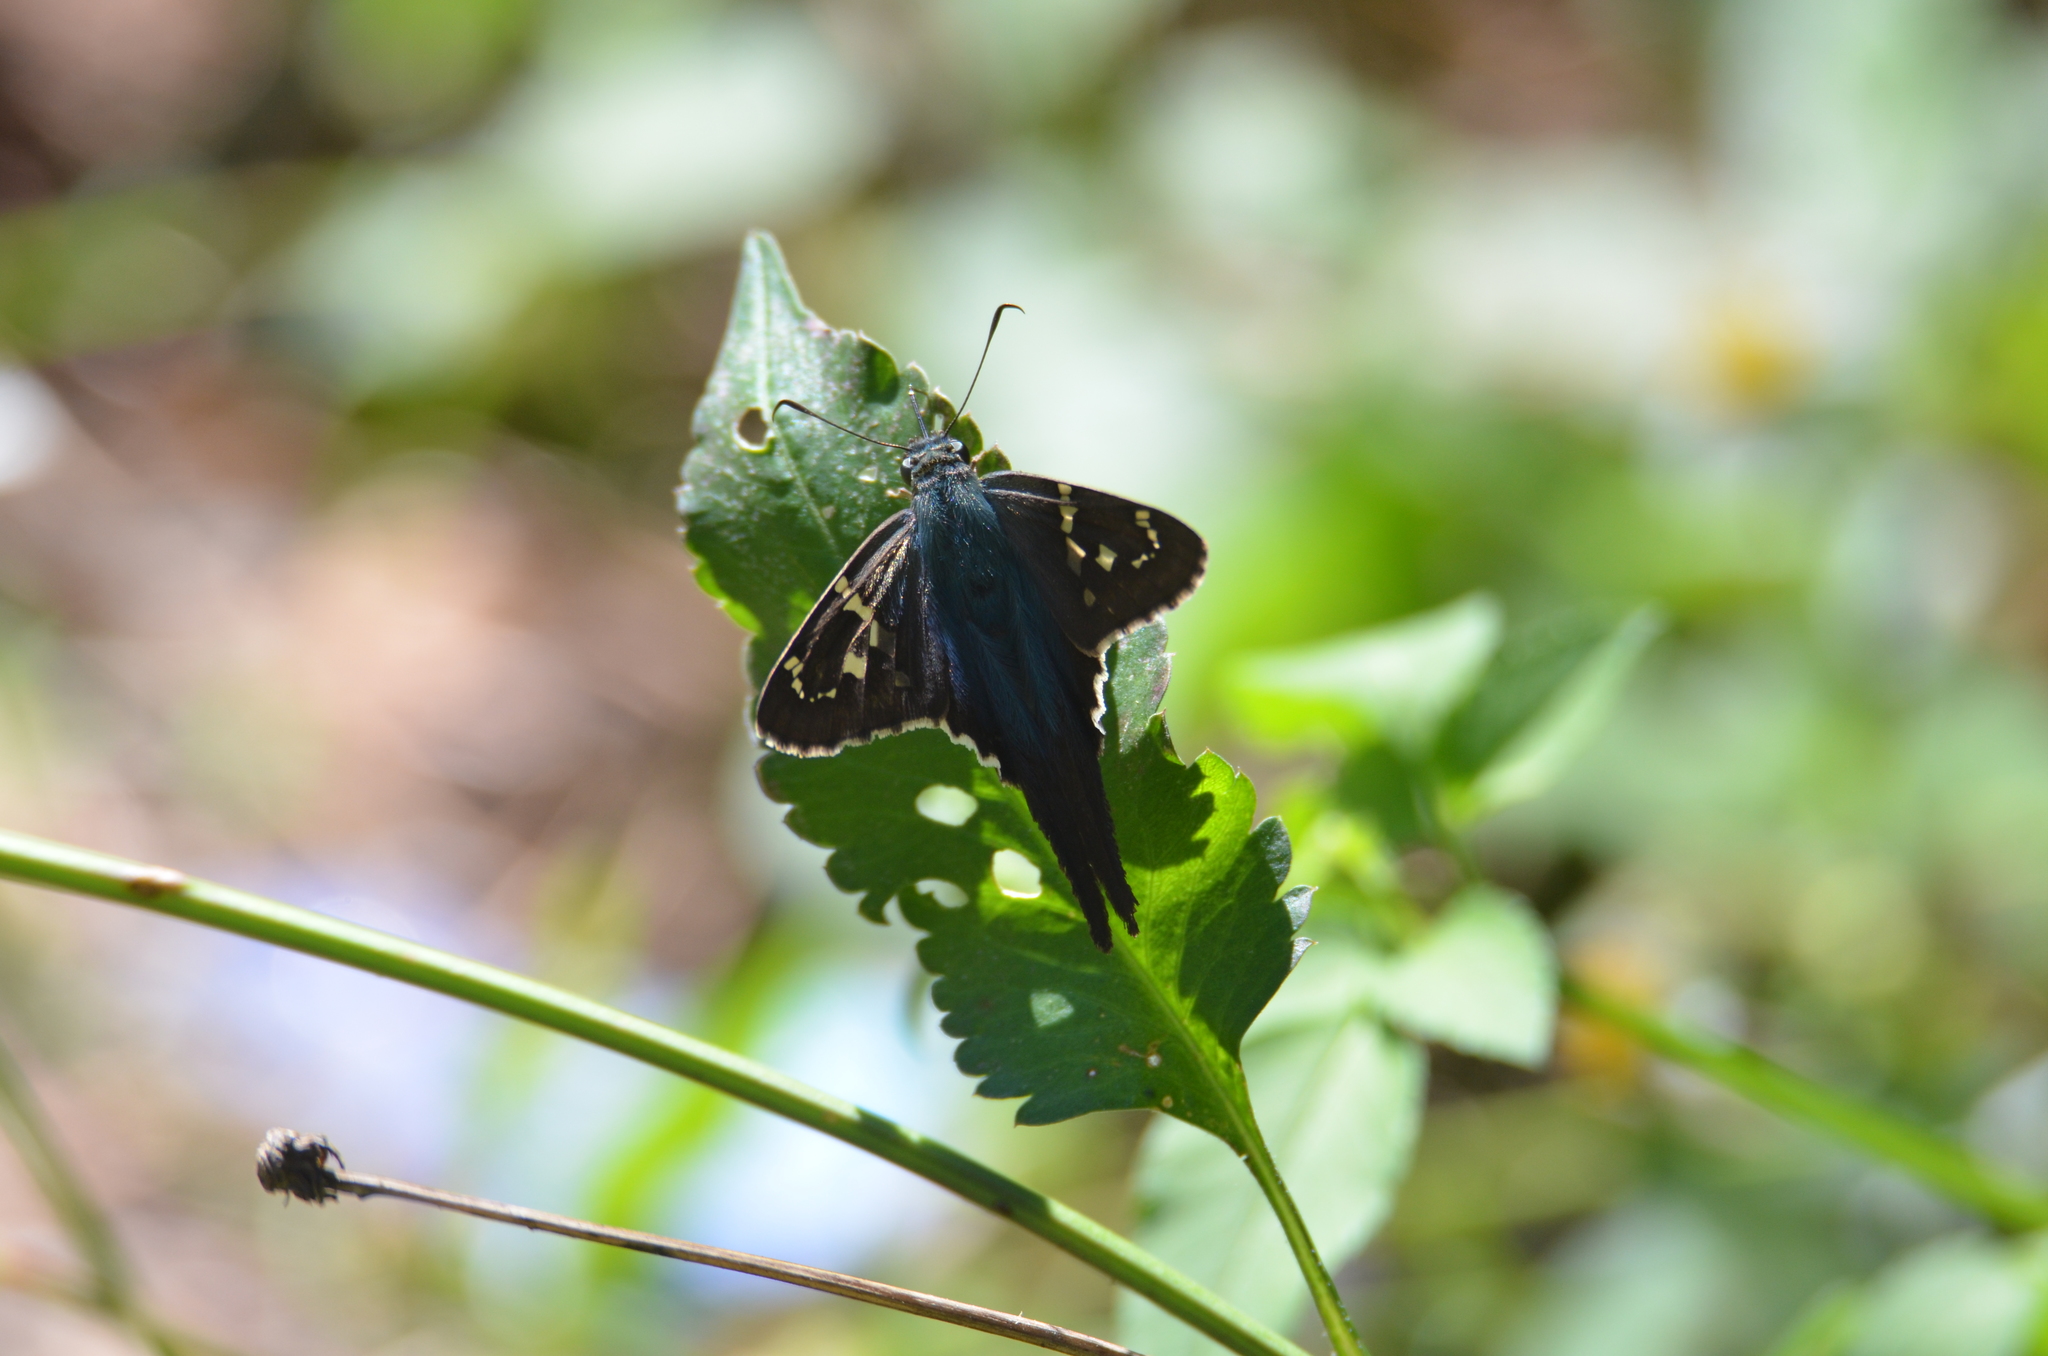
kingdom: Animalia
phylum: Arthropoda
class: Insecta
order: Lepidoptera
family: Hesperiidae
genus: Urbanus
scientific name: Urbanus proteus
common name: Long-tailed skipper
